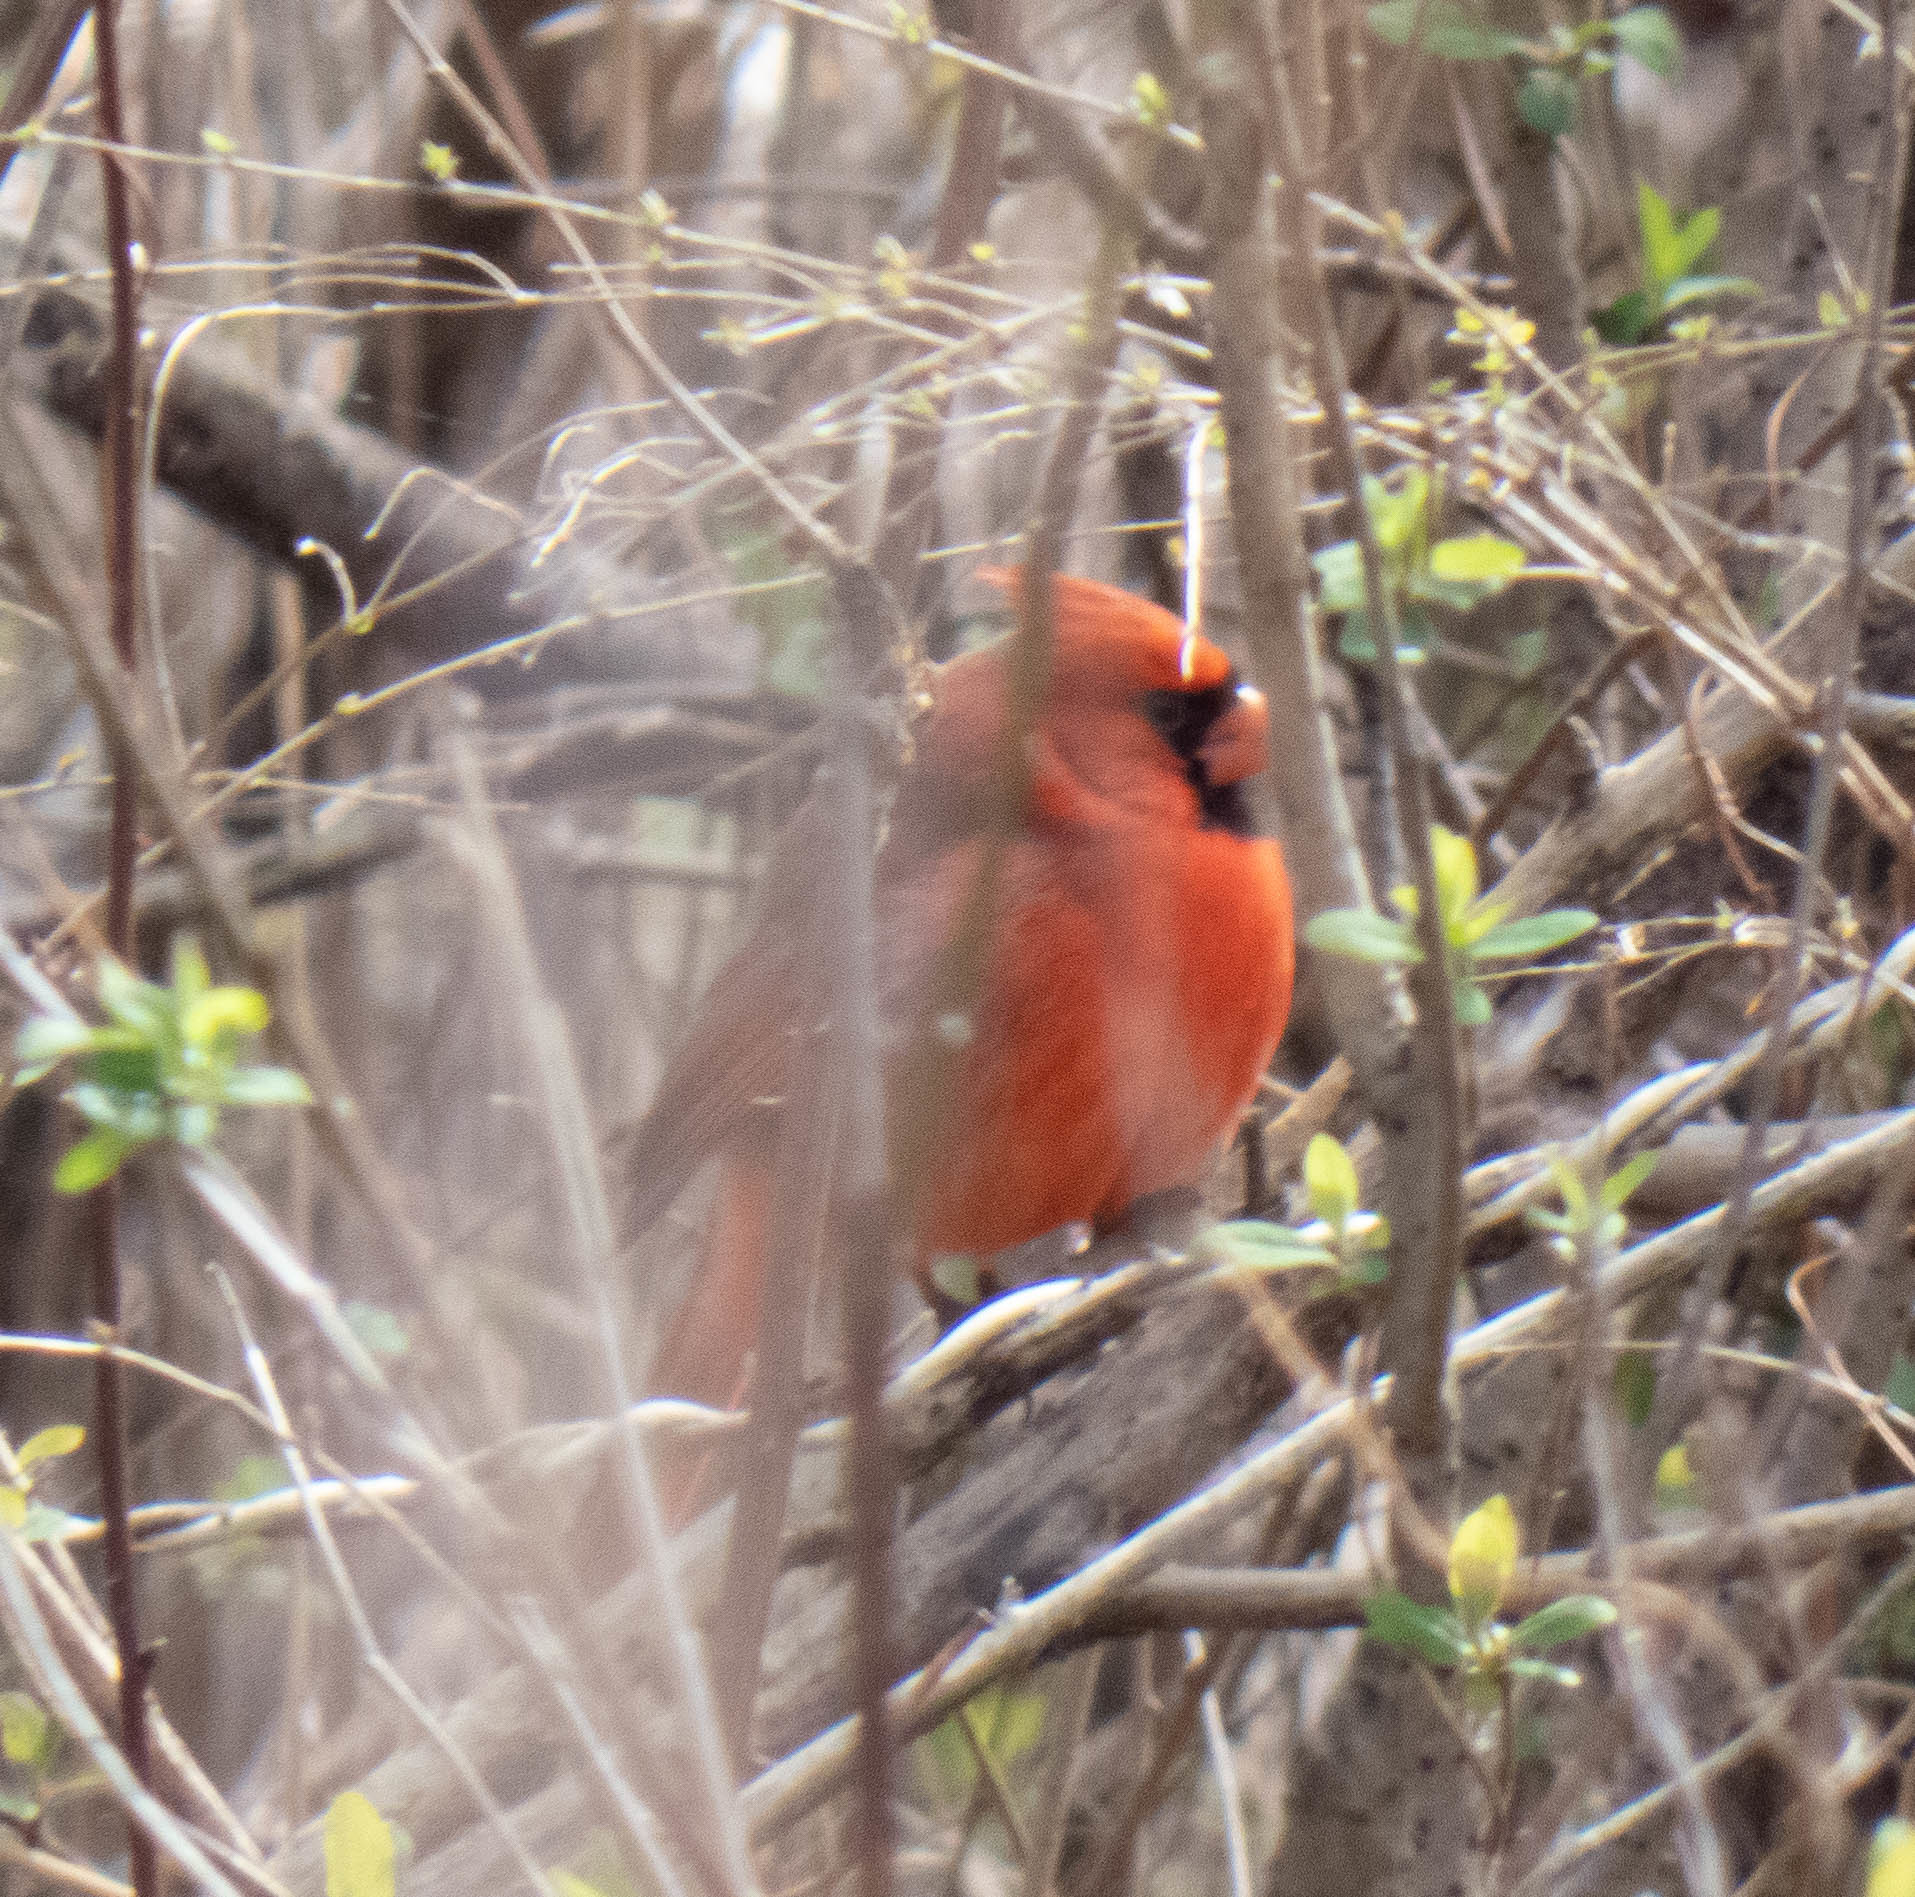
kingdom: Animalia
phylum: Chordata
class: Aves
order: Passeriformes
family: Cardinalidae
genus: Cardinalis
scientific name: Cardinalis cardinalis
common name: Northern cardinal
